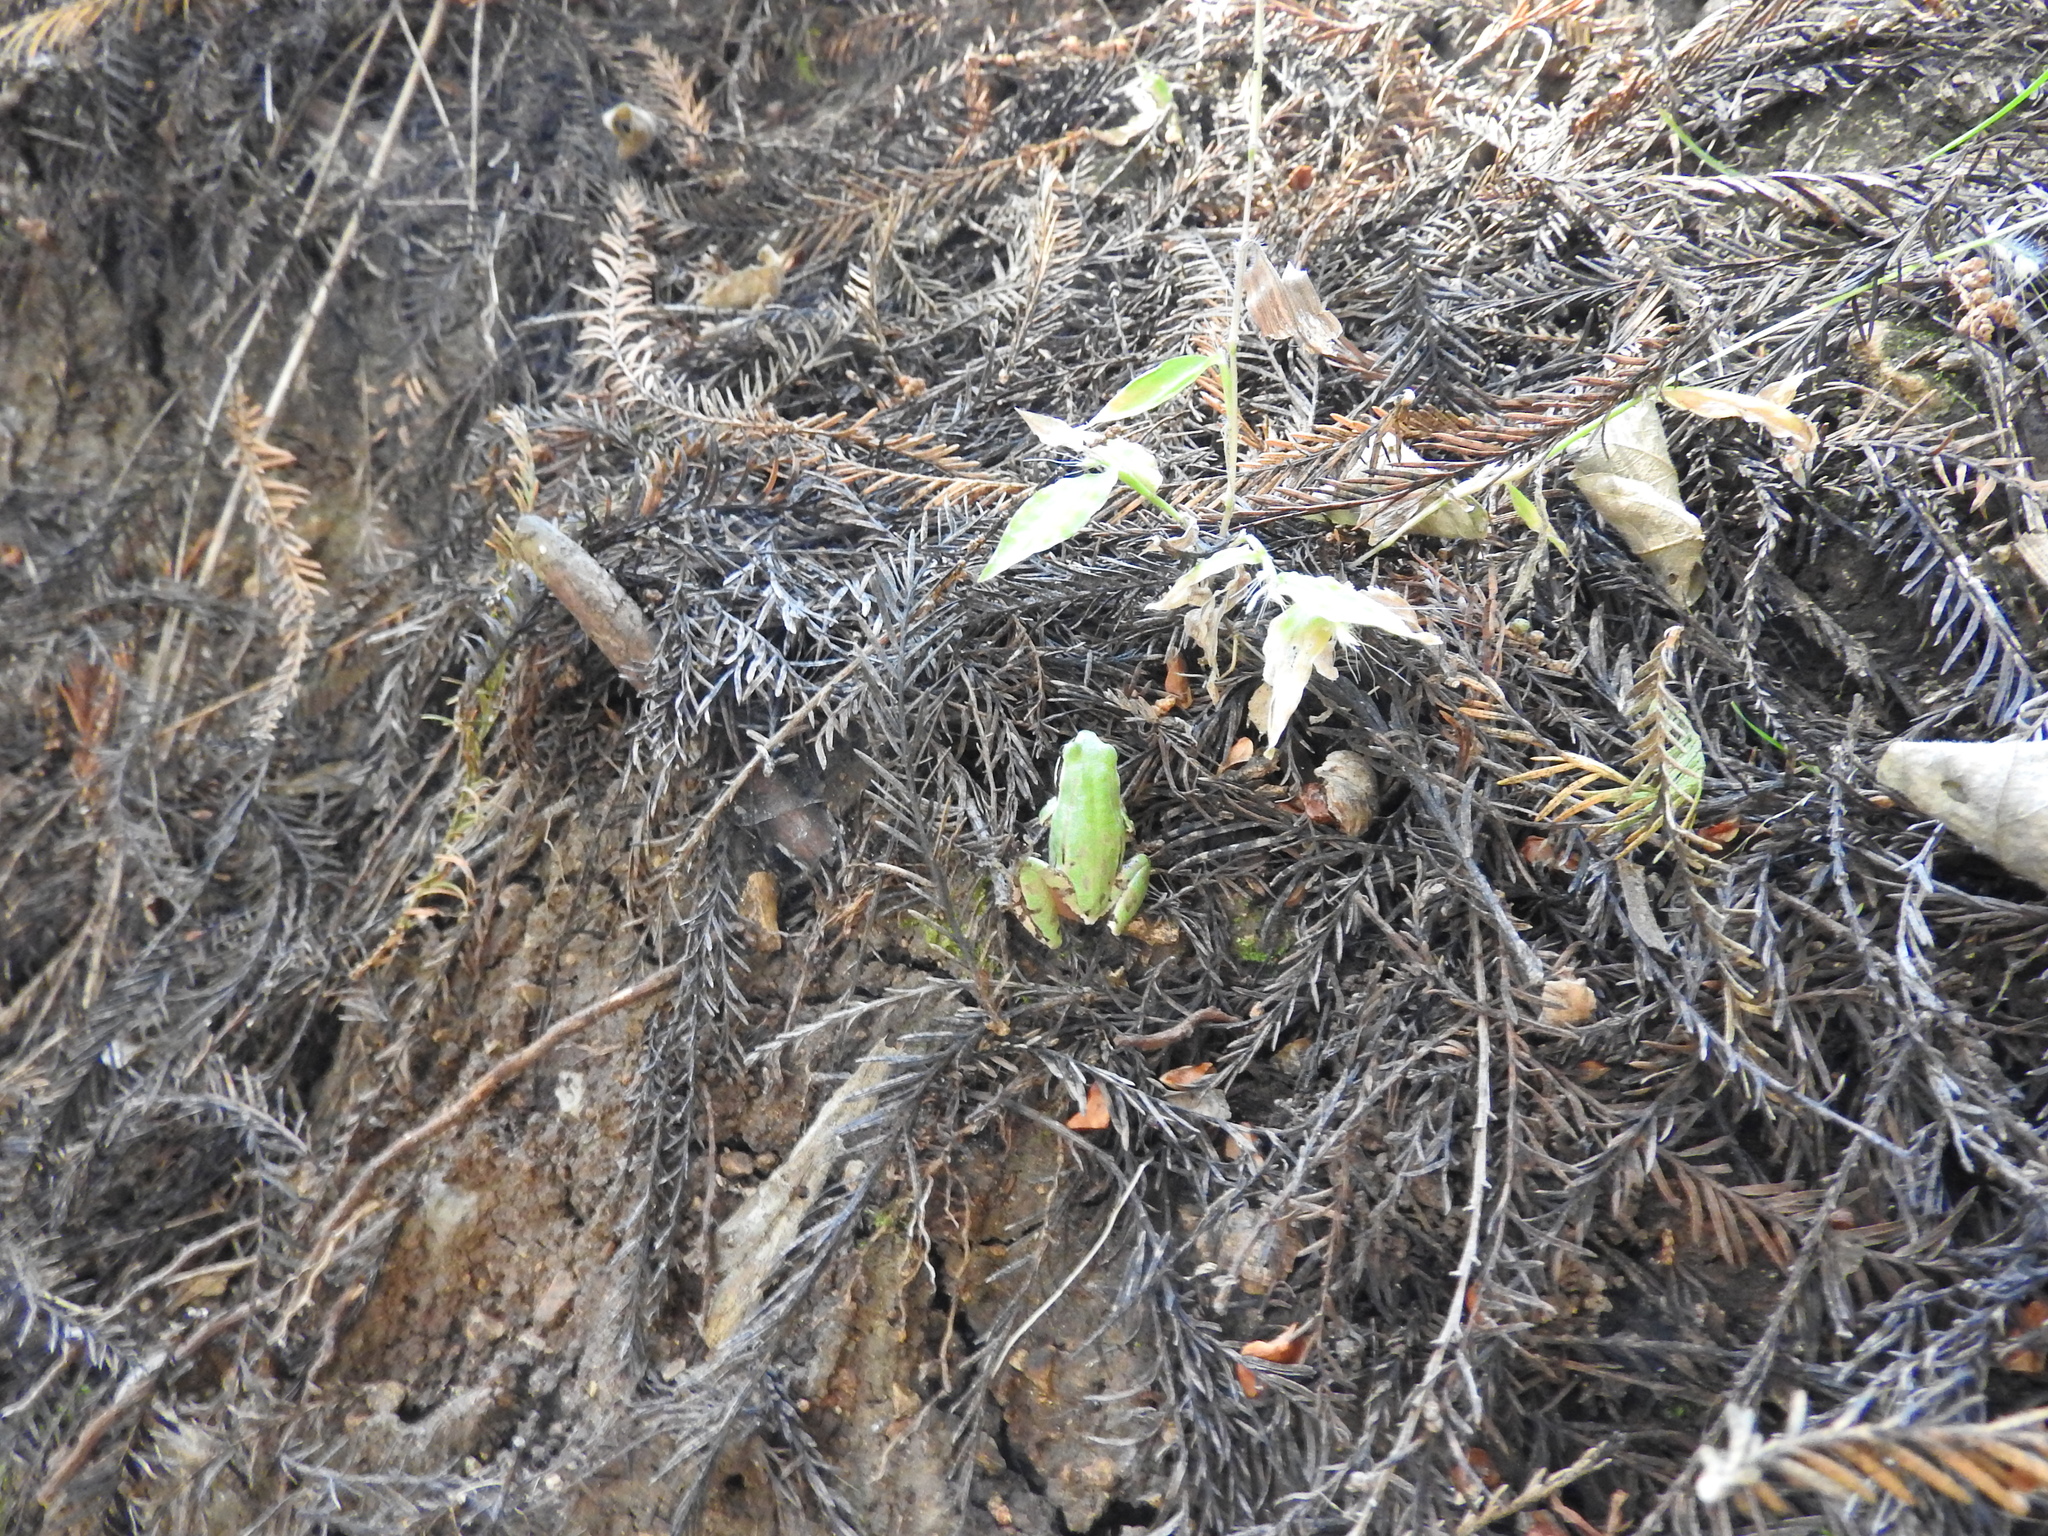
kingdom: Animalia
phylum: Chordata
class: Amphibia
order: Anura
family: Hylidae
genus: Dryophytes
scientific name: Dryophytes eximius
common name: Mountain treefrog
